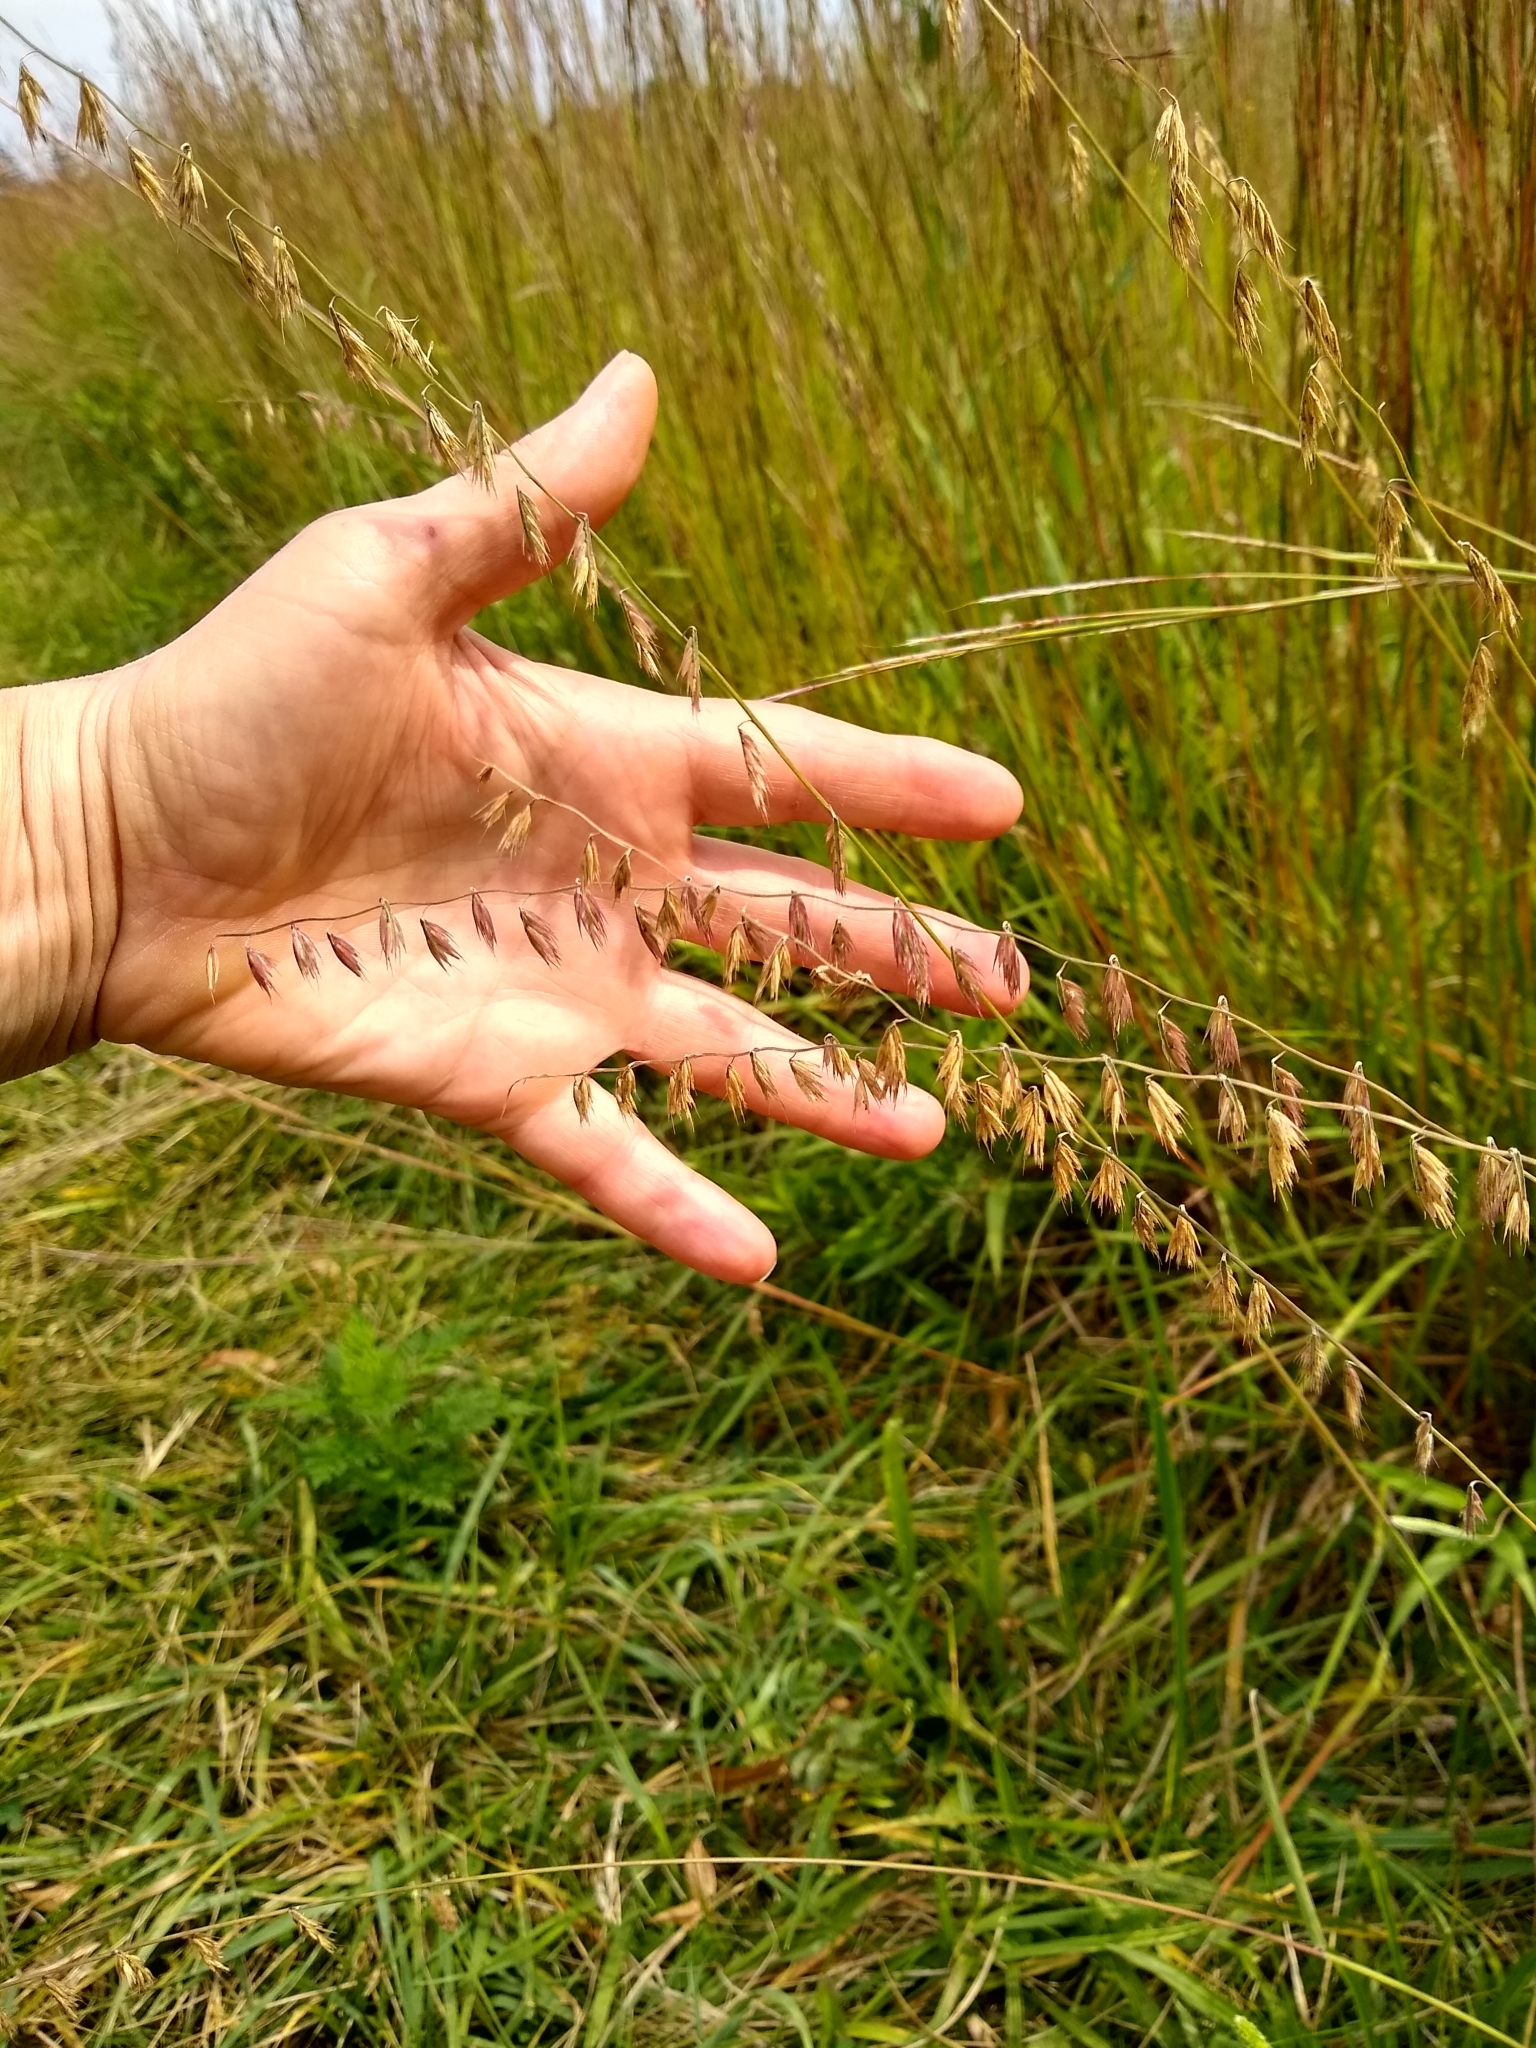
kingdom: Plantae
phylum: Tracheophyta
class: Liliopsida
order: Poales
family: Poaceae
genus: Bouteloua
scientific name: Bouteloua curtipendula
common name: Side-oats grama
